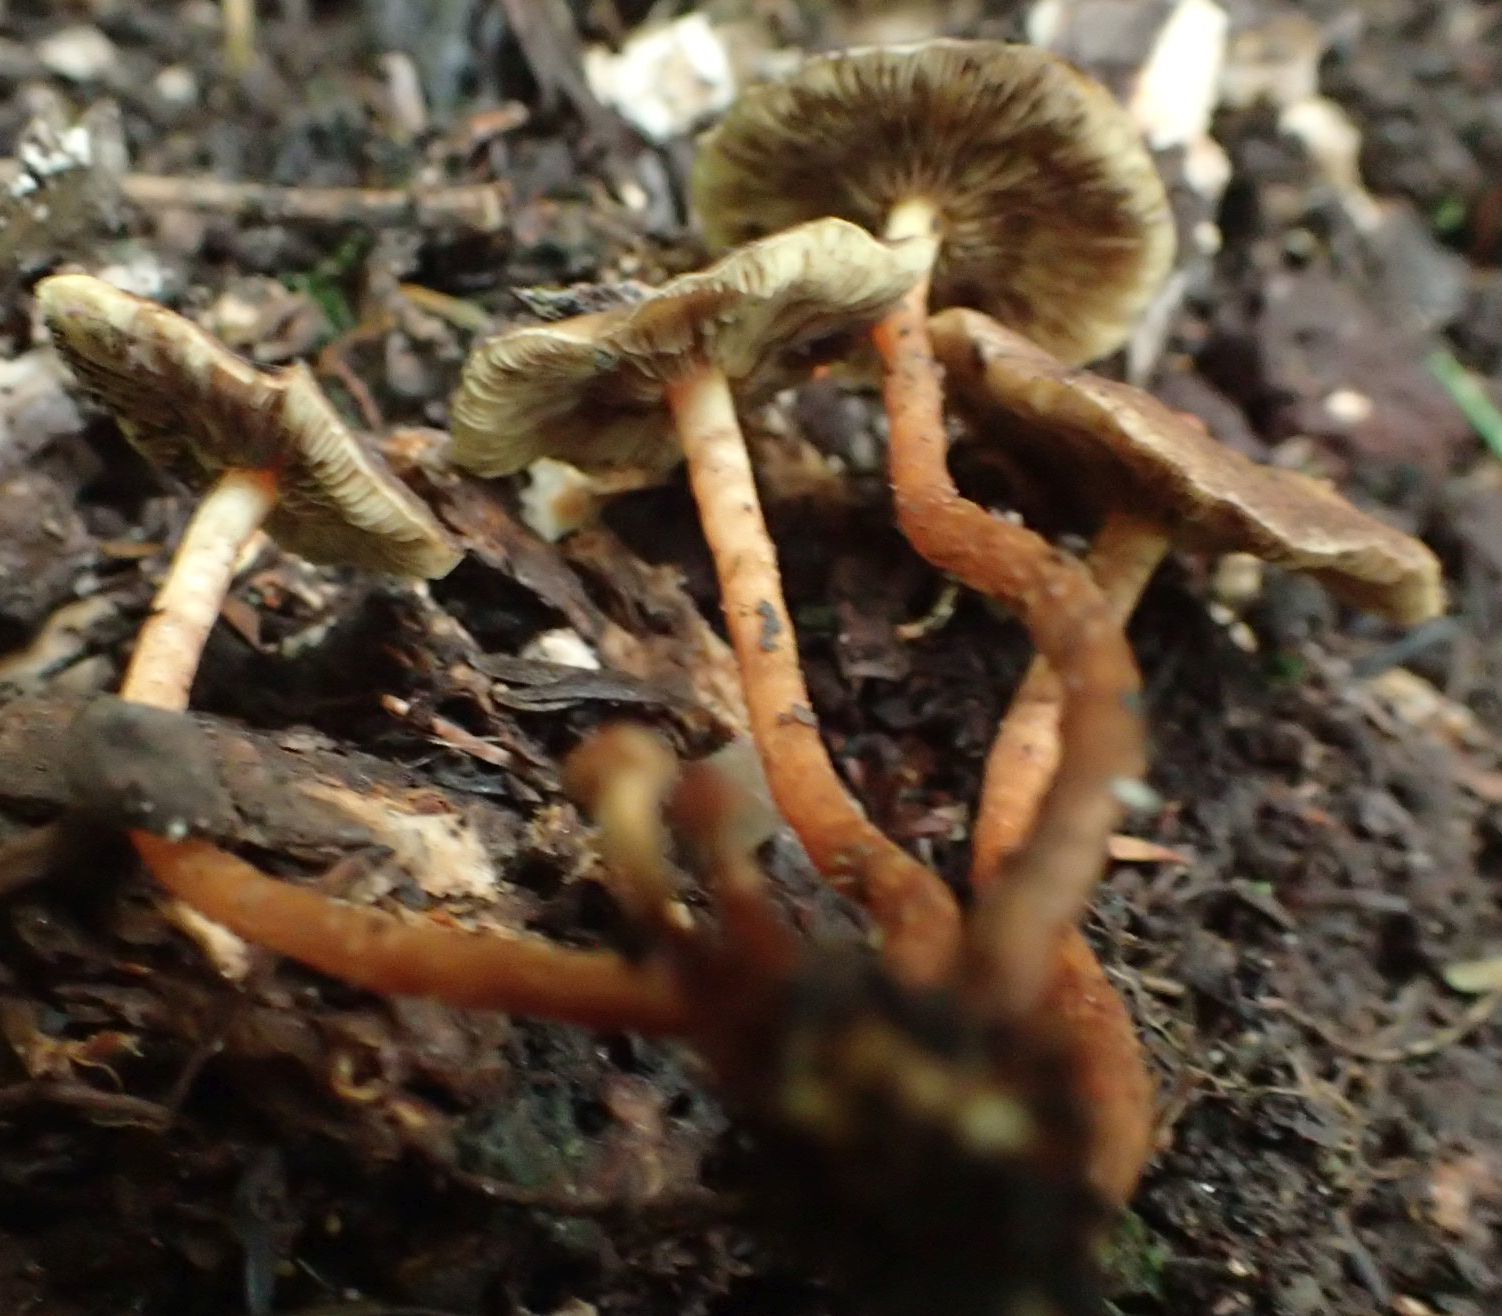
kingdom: Fungi
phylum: Basidiomycota
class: Agaricomycetes
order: Agaricales
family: Strophariaceae
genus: Hypholoma
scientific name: Hypholoma acutum
